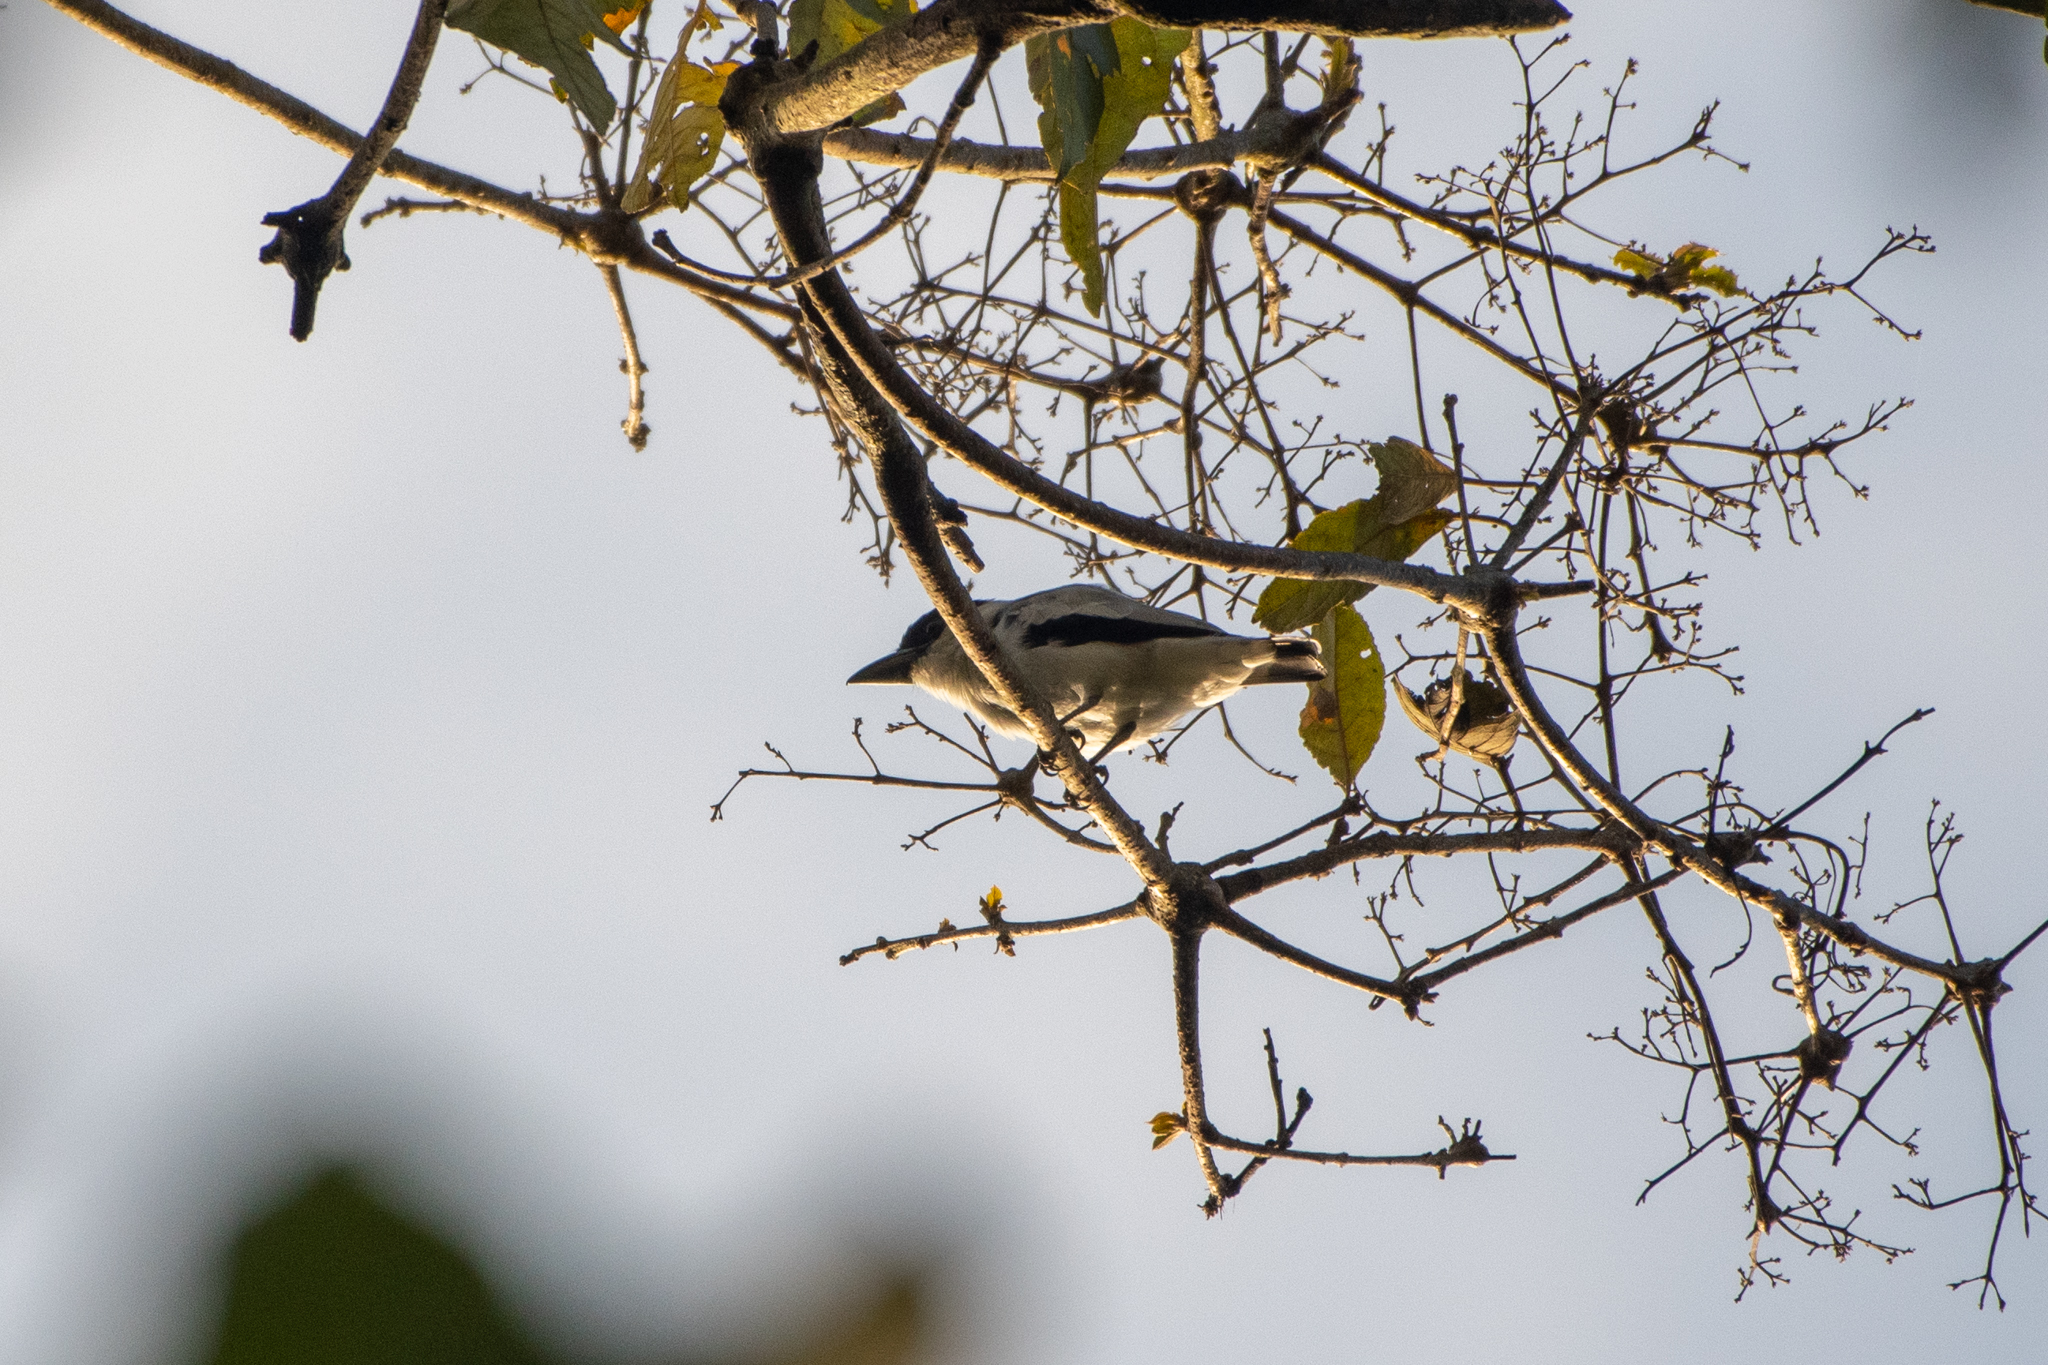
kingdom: Animalia
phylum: Chordata
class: Aves
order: Passeriformes
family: Cotingidae
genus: Tityra
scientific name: Tityra inquisitor
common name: Black-crowned tityra
